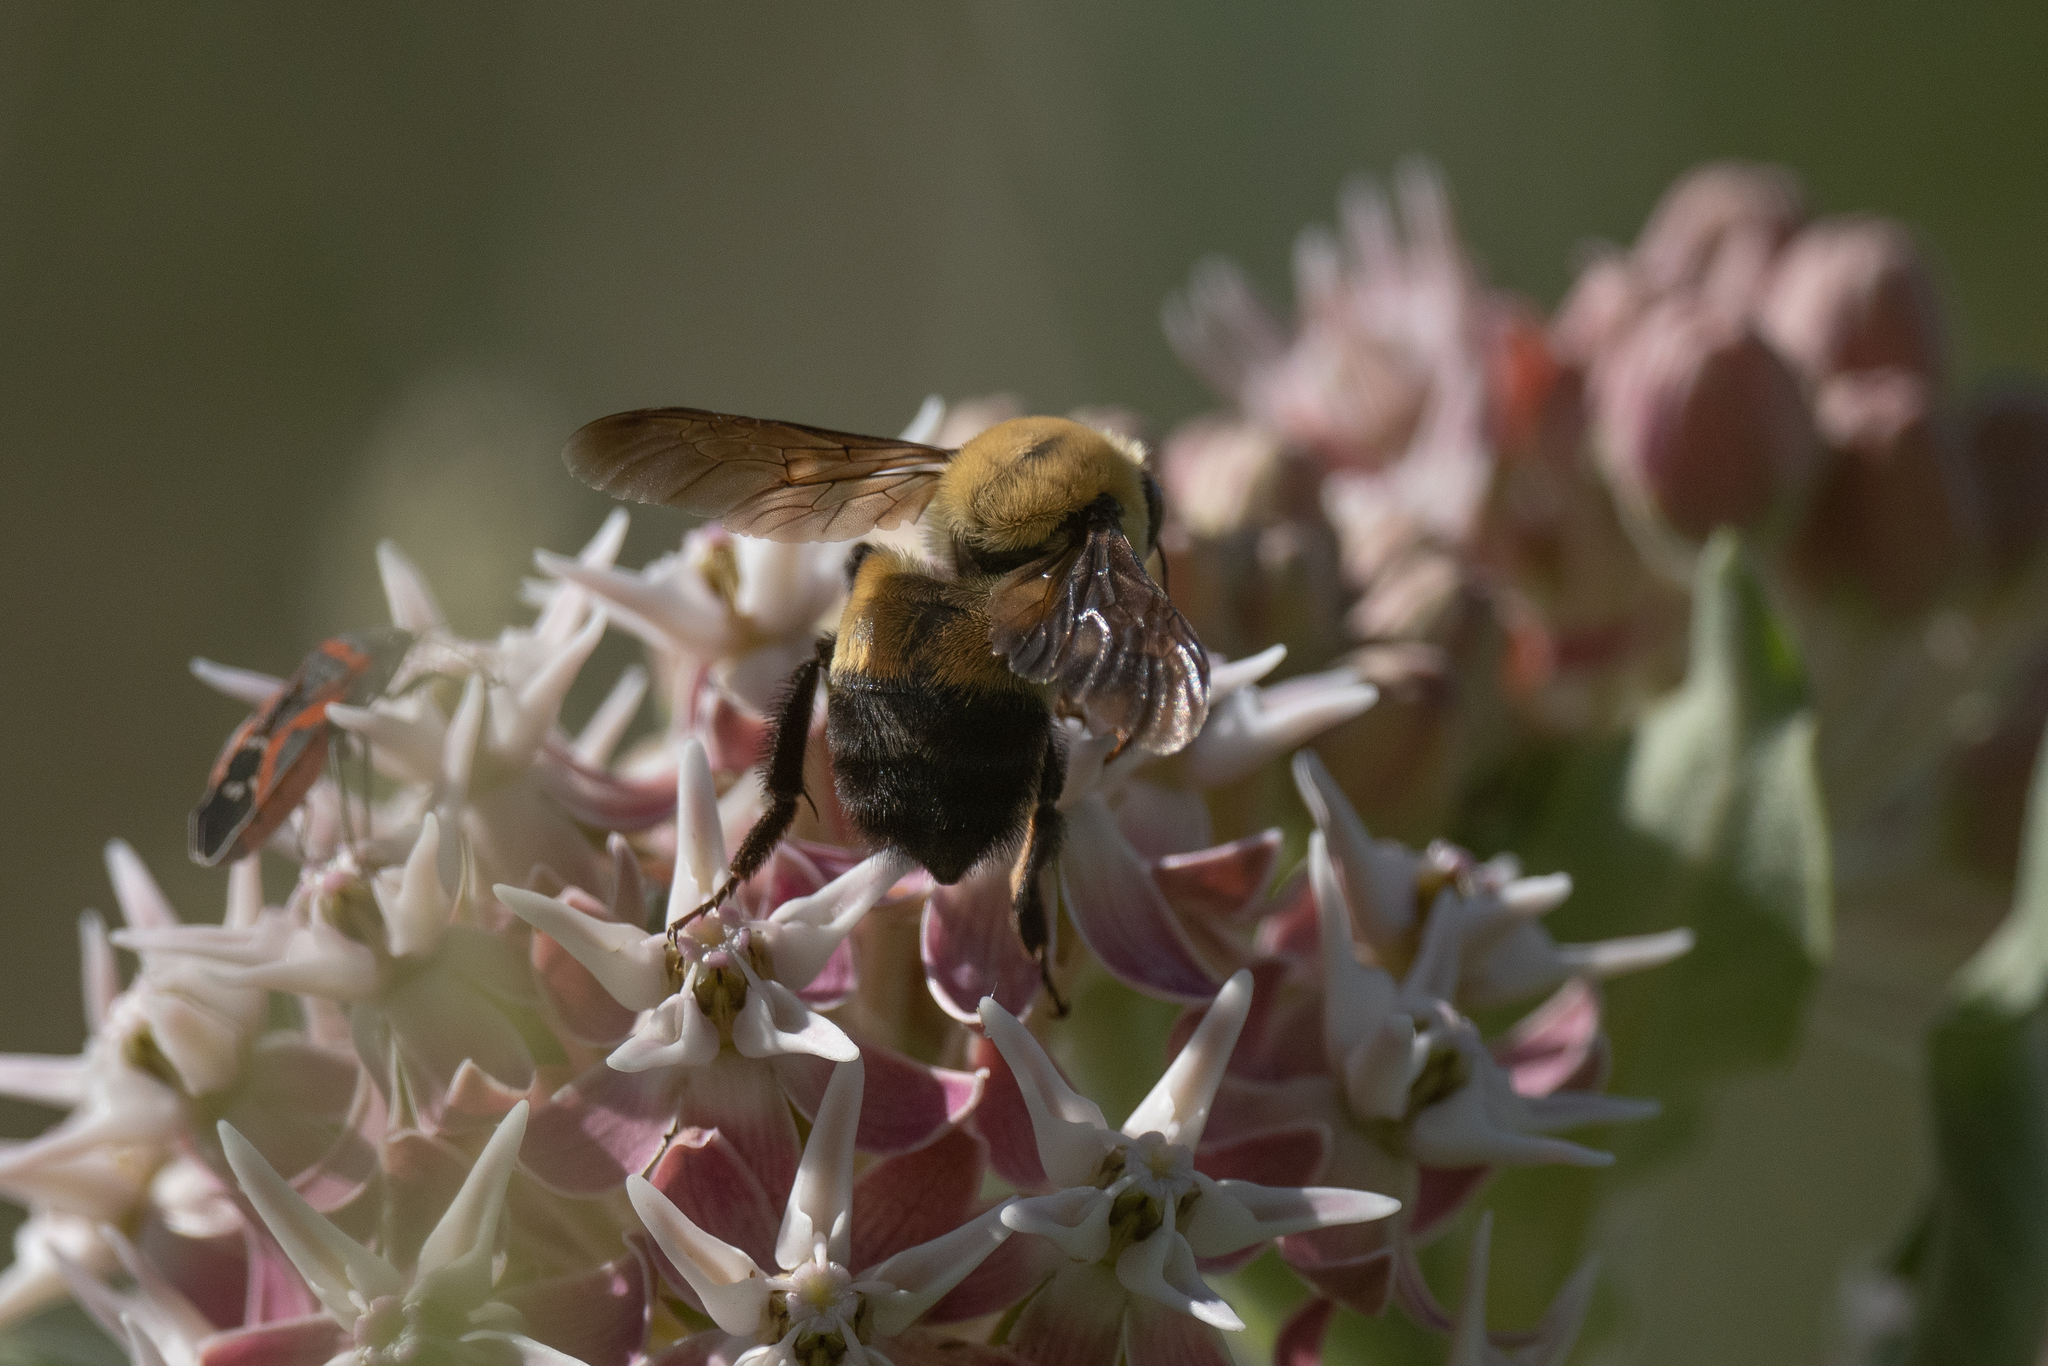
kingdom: Animalia
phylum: Arthropoda
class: Insecta
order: Hymenoptera
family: Apidae
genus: Bombus
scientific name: Bombus griseocollis
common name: Brown-belted bumble bee
